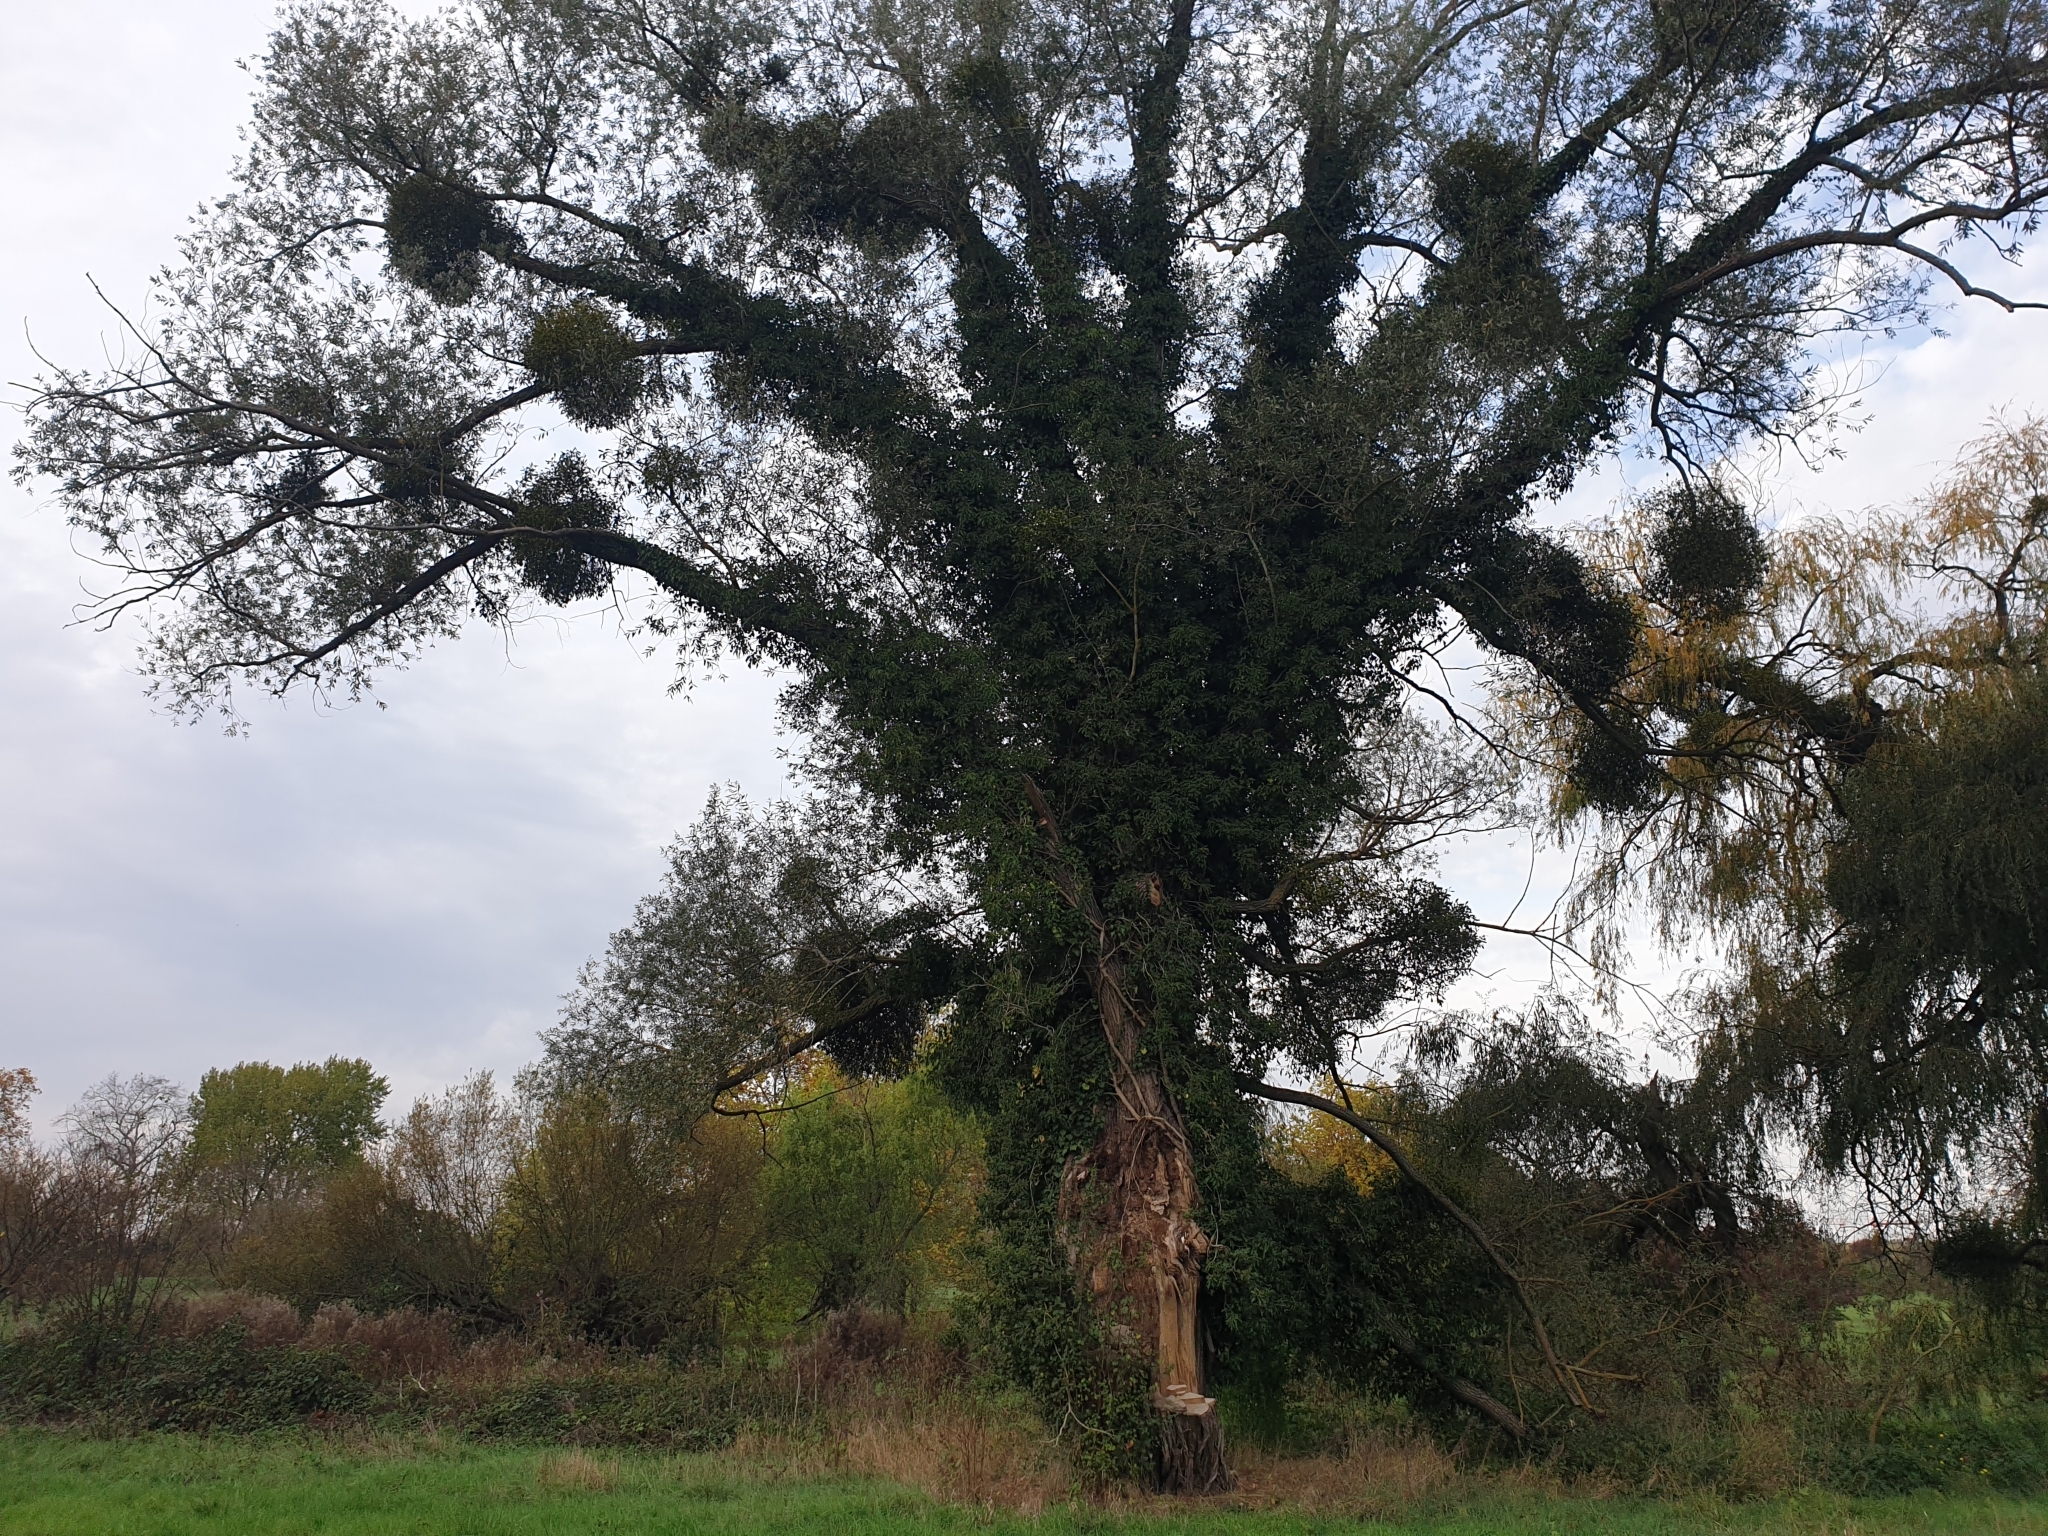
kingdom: Plantae
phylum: Tracheophyta
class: Magnoliopsida
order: Apiales
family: Araliaceae
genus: Hedera
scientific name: Hedera helix
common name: Ivy
